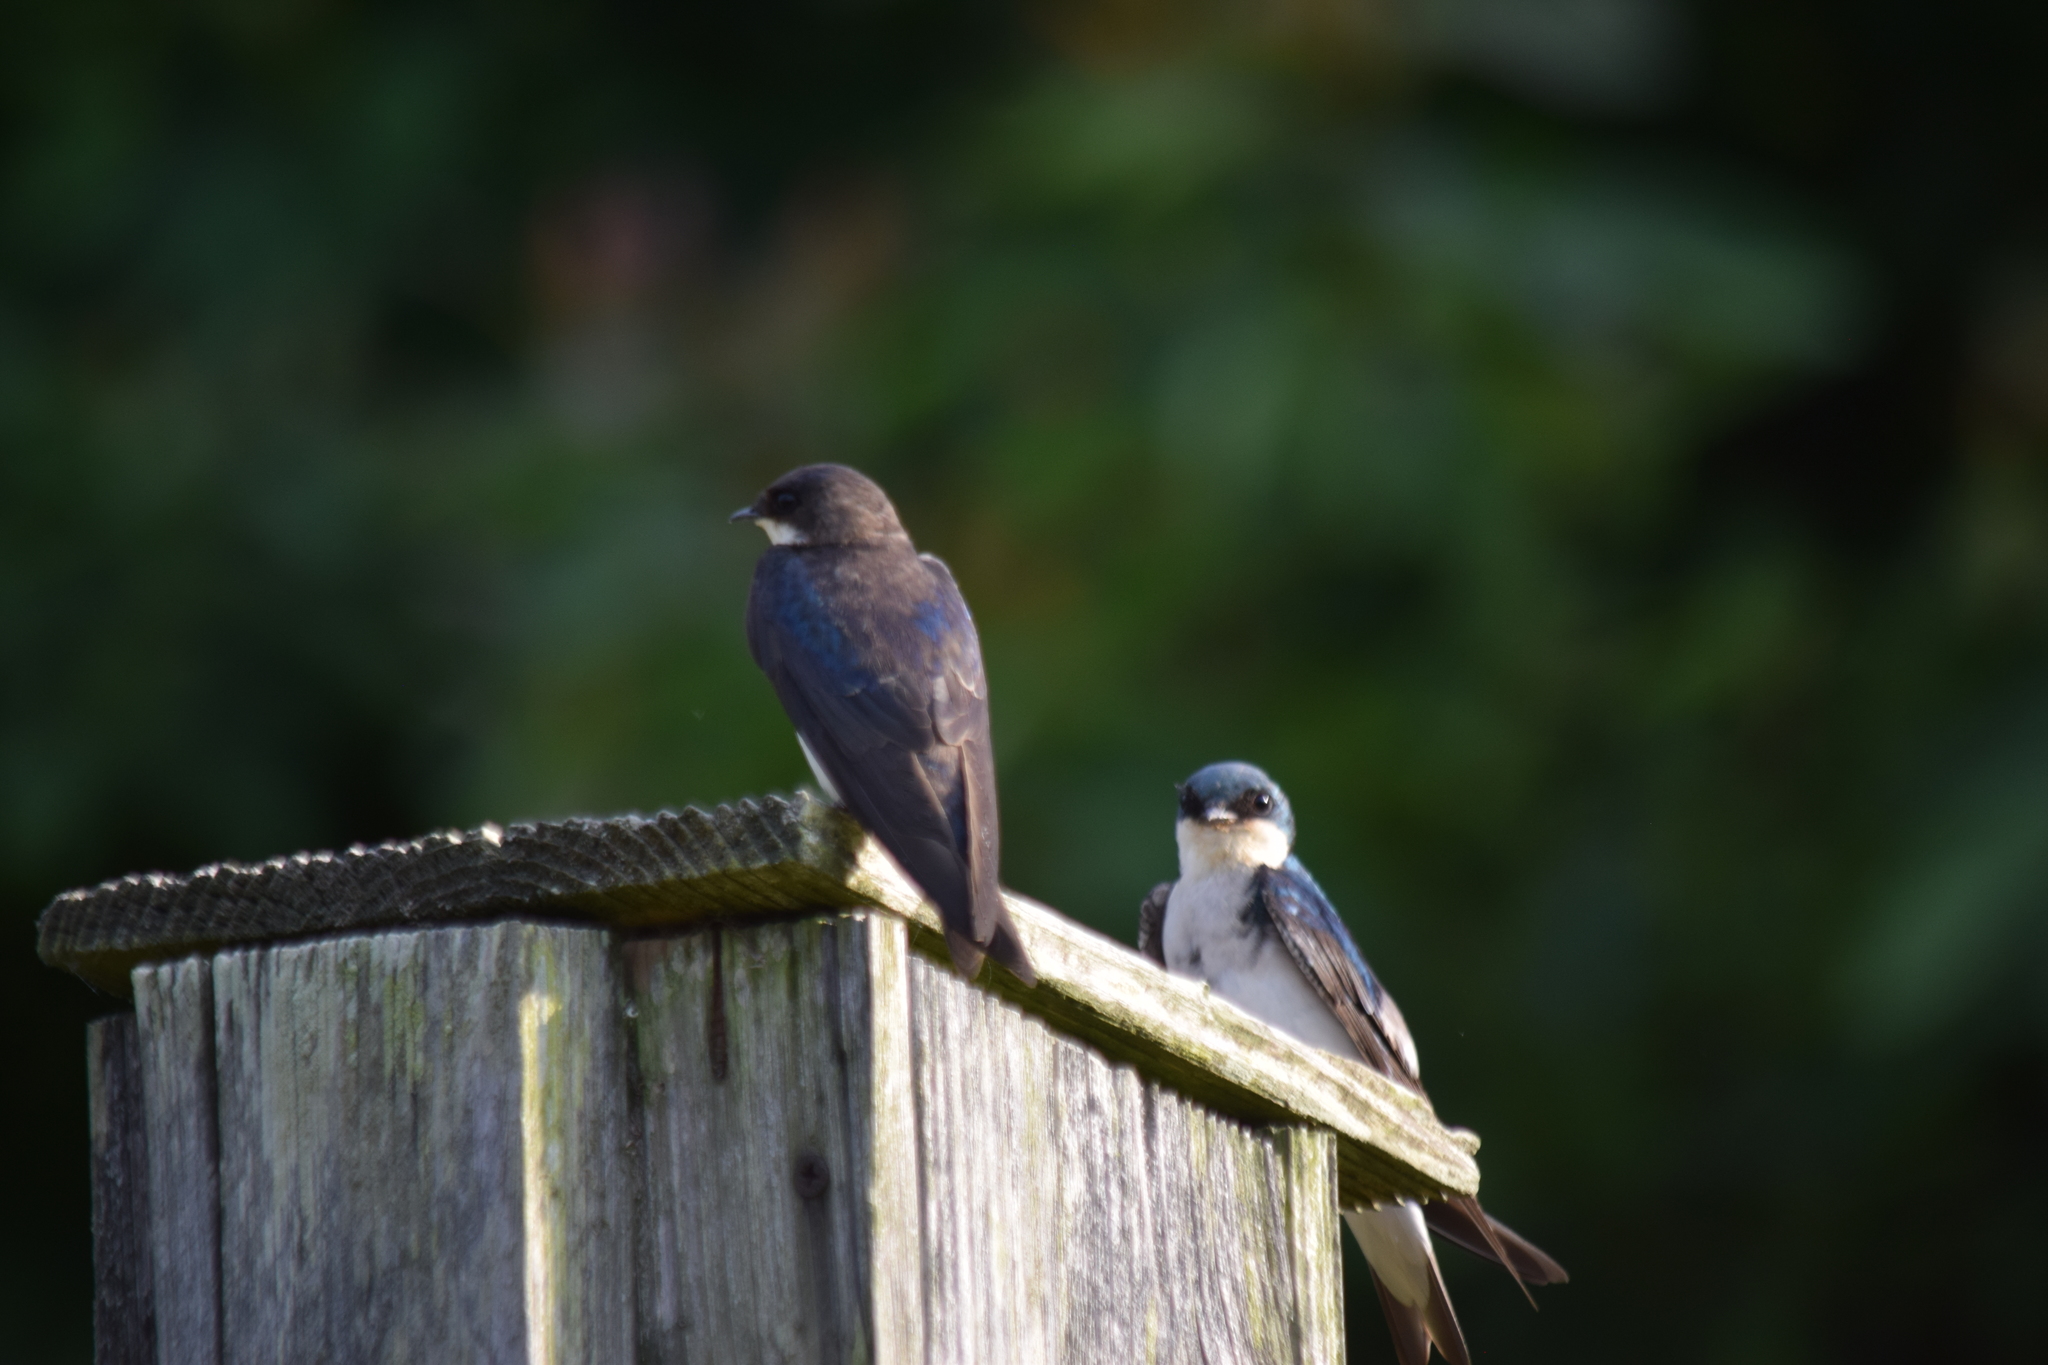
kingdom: Animalia
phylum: Chordata
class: Aves
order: Passeriformes
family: Hirundinidae
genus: Tachycineta
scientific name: Tachycineta bicolor
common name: Tree swallow
